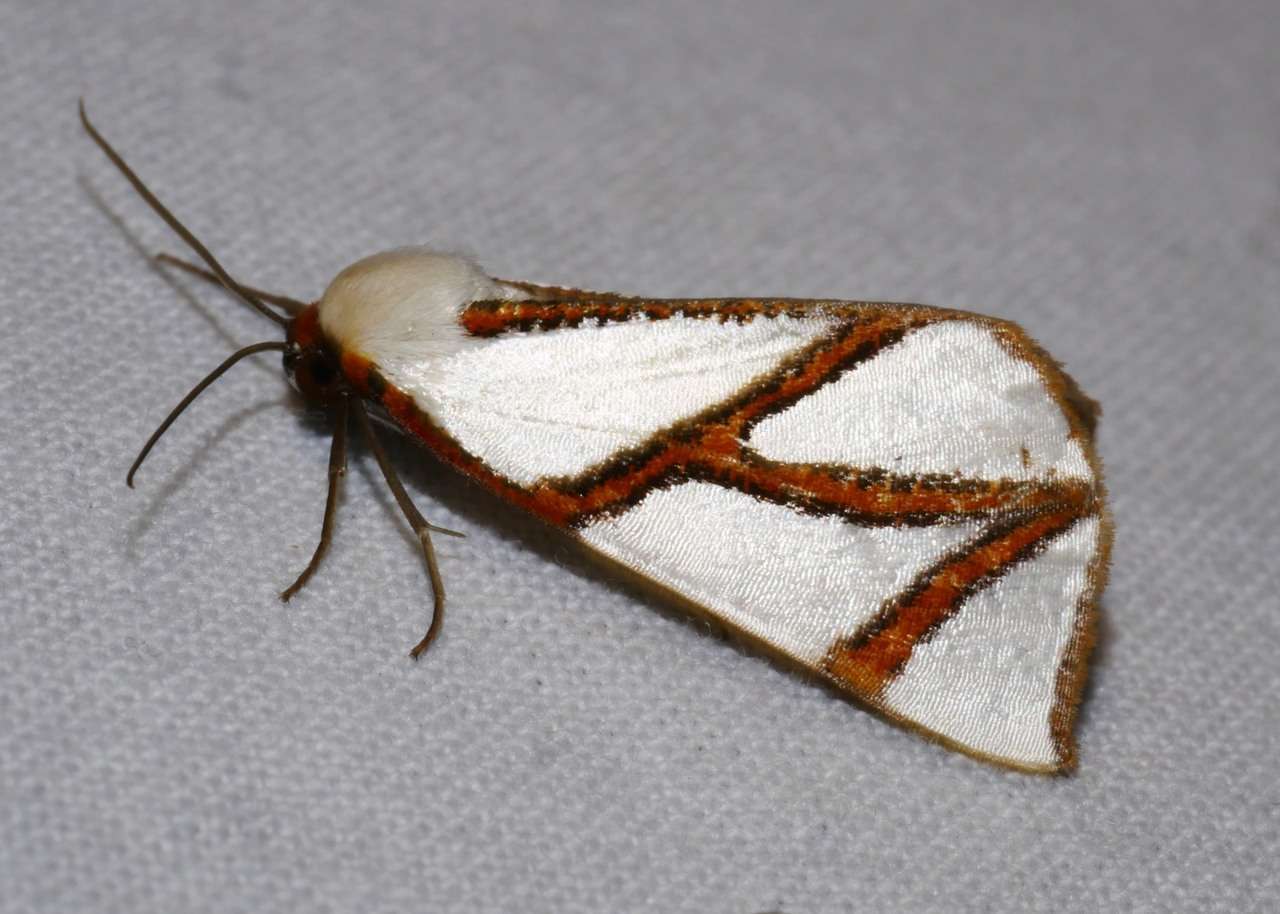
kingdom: Animalia
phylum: Arthropoda
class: Insecta
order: Lepidoptera
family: Geometridae
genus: Thalaina
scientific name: Thalaina clara
